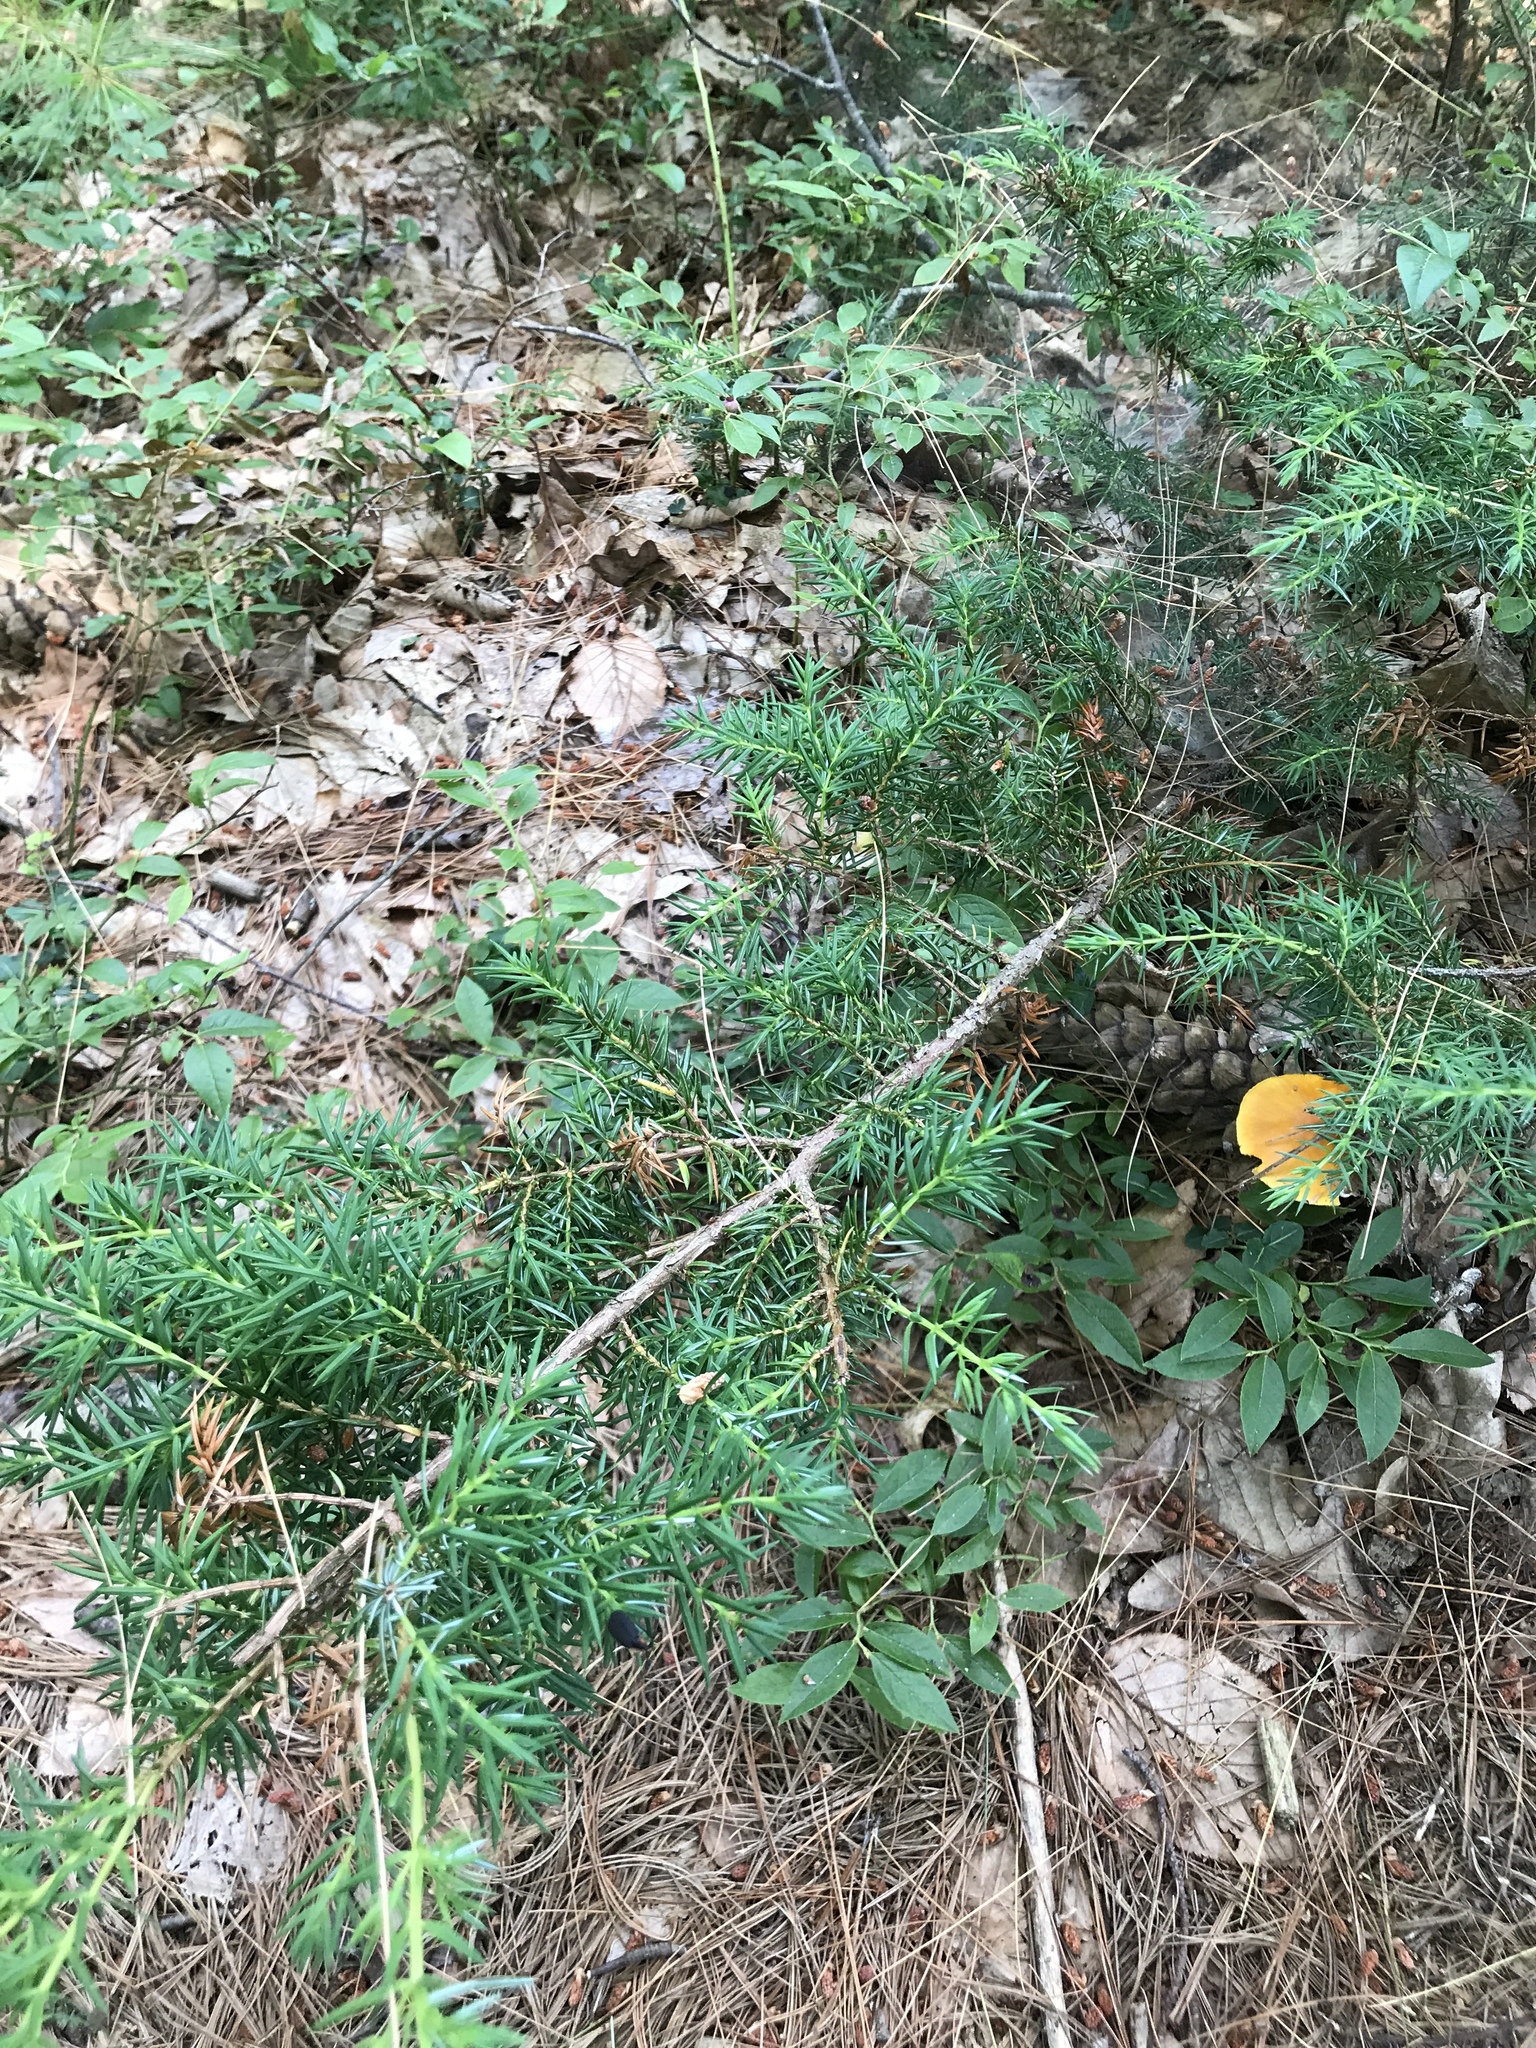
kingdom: Plantae
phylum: Tracheophyta
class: Pinopsida
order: Pinales
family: Cupressaceae
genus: Juniperus
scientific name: Juniperus communis
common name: Common juniper
